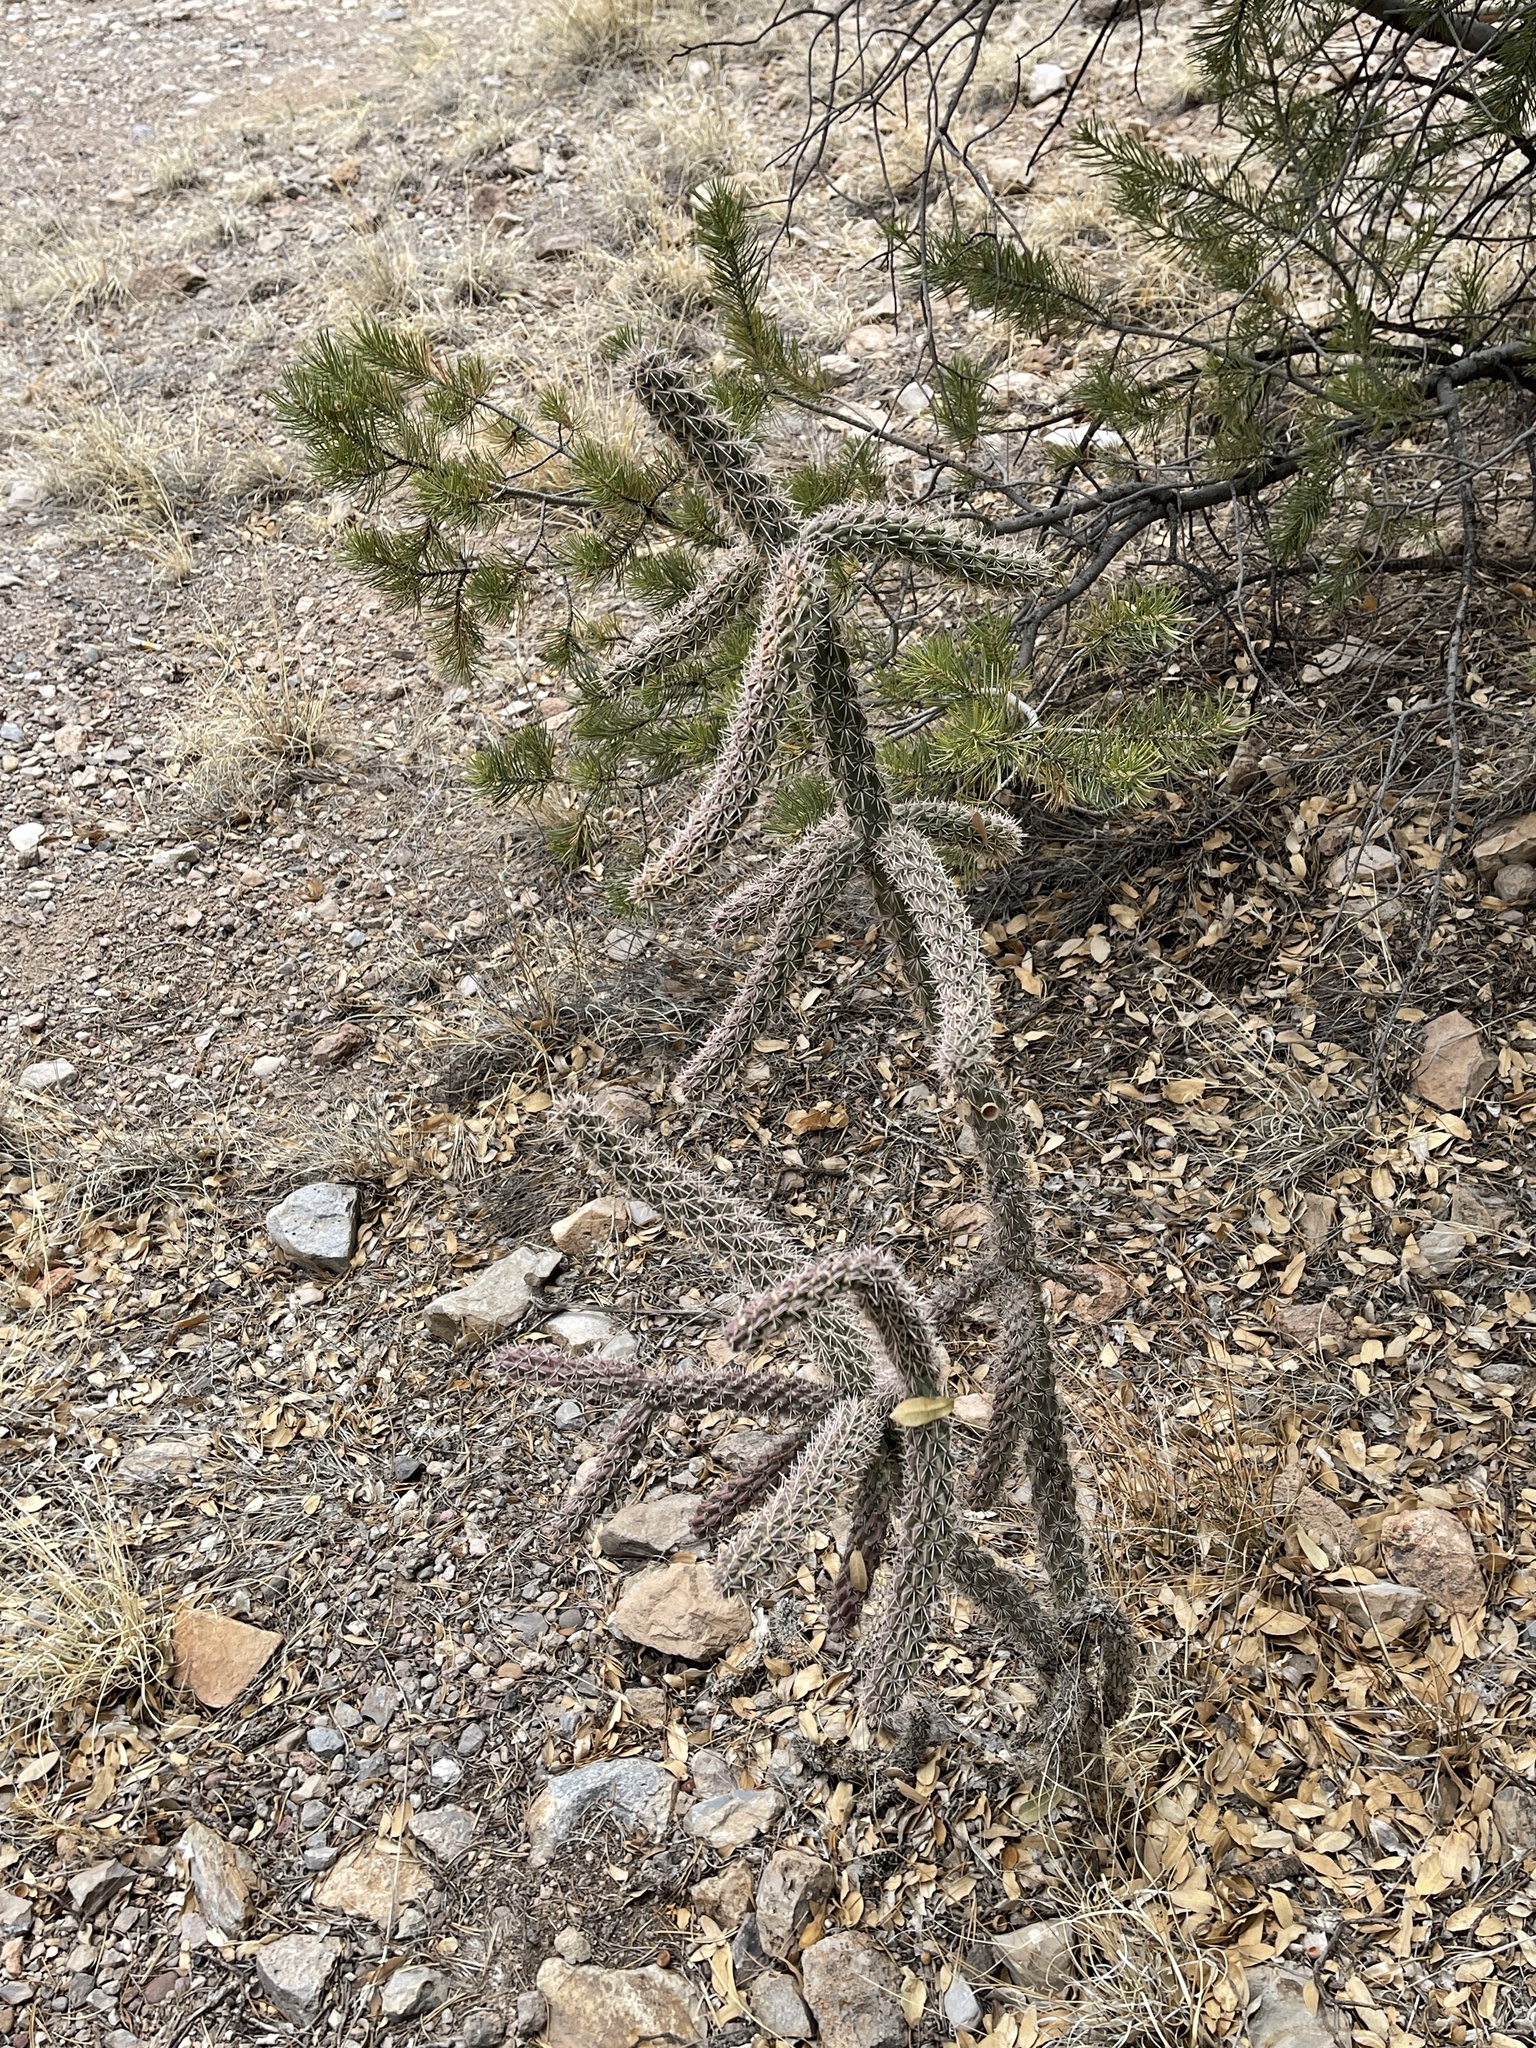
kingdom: Plantae
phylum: Tracheophyta
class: Magnoliopsida
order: Caryophyllales
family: Cactaceae
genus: Cylindropuntia
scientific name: Cylindropuntia imbricata
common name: Candelabrum cactus
